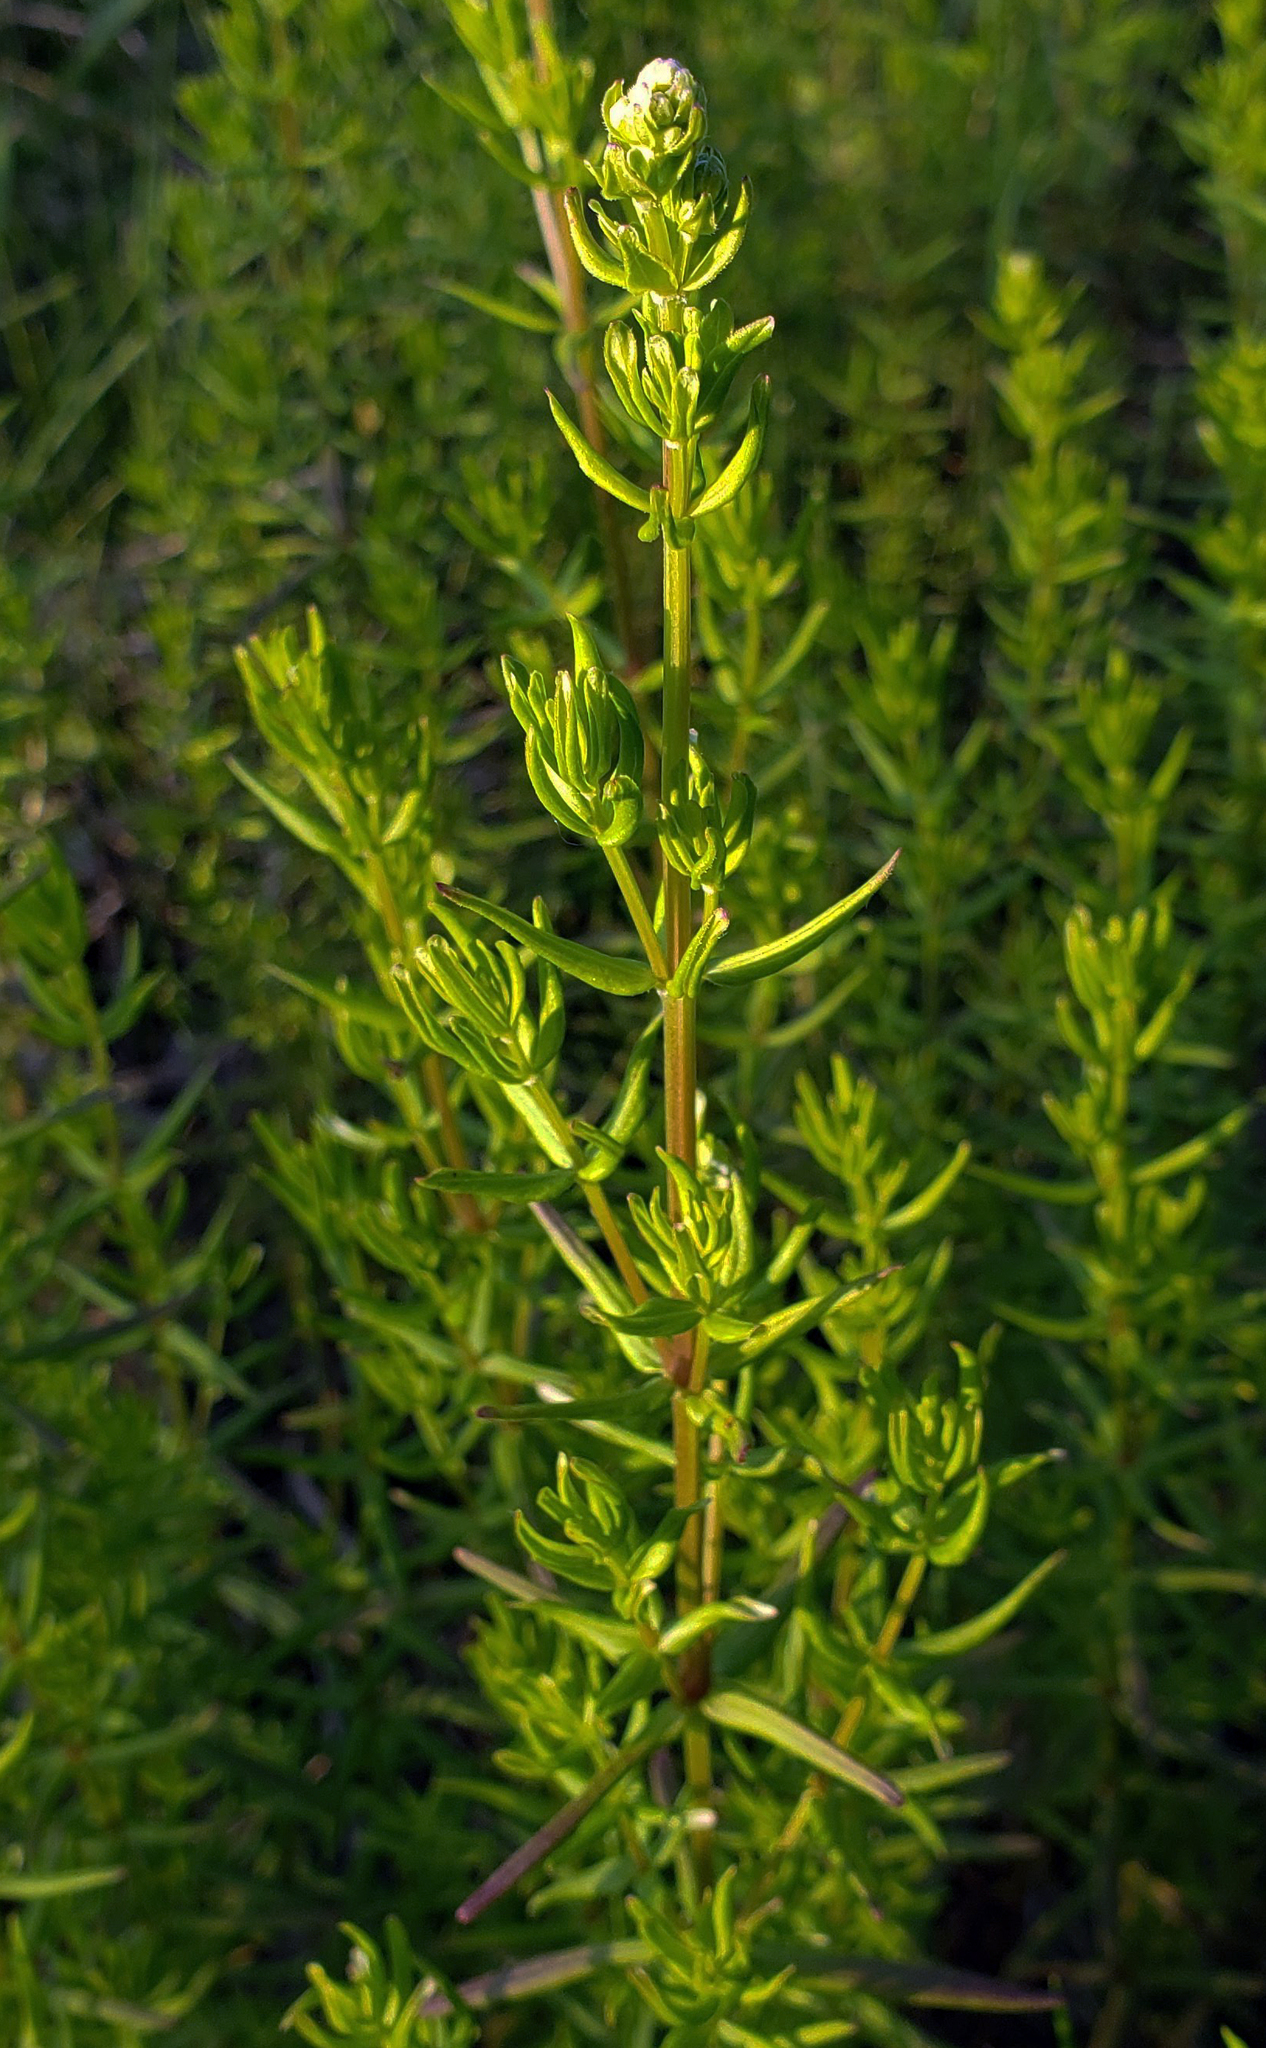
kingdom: Plantae
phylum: Tracheophyta
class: Magnoliopsida
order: Gentianales
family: Rubiaceae
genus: Galium
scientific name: Galium boreale
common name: Northern bedstraw
